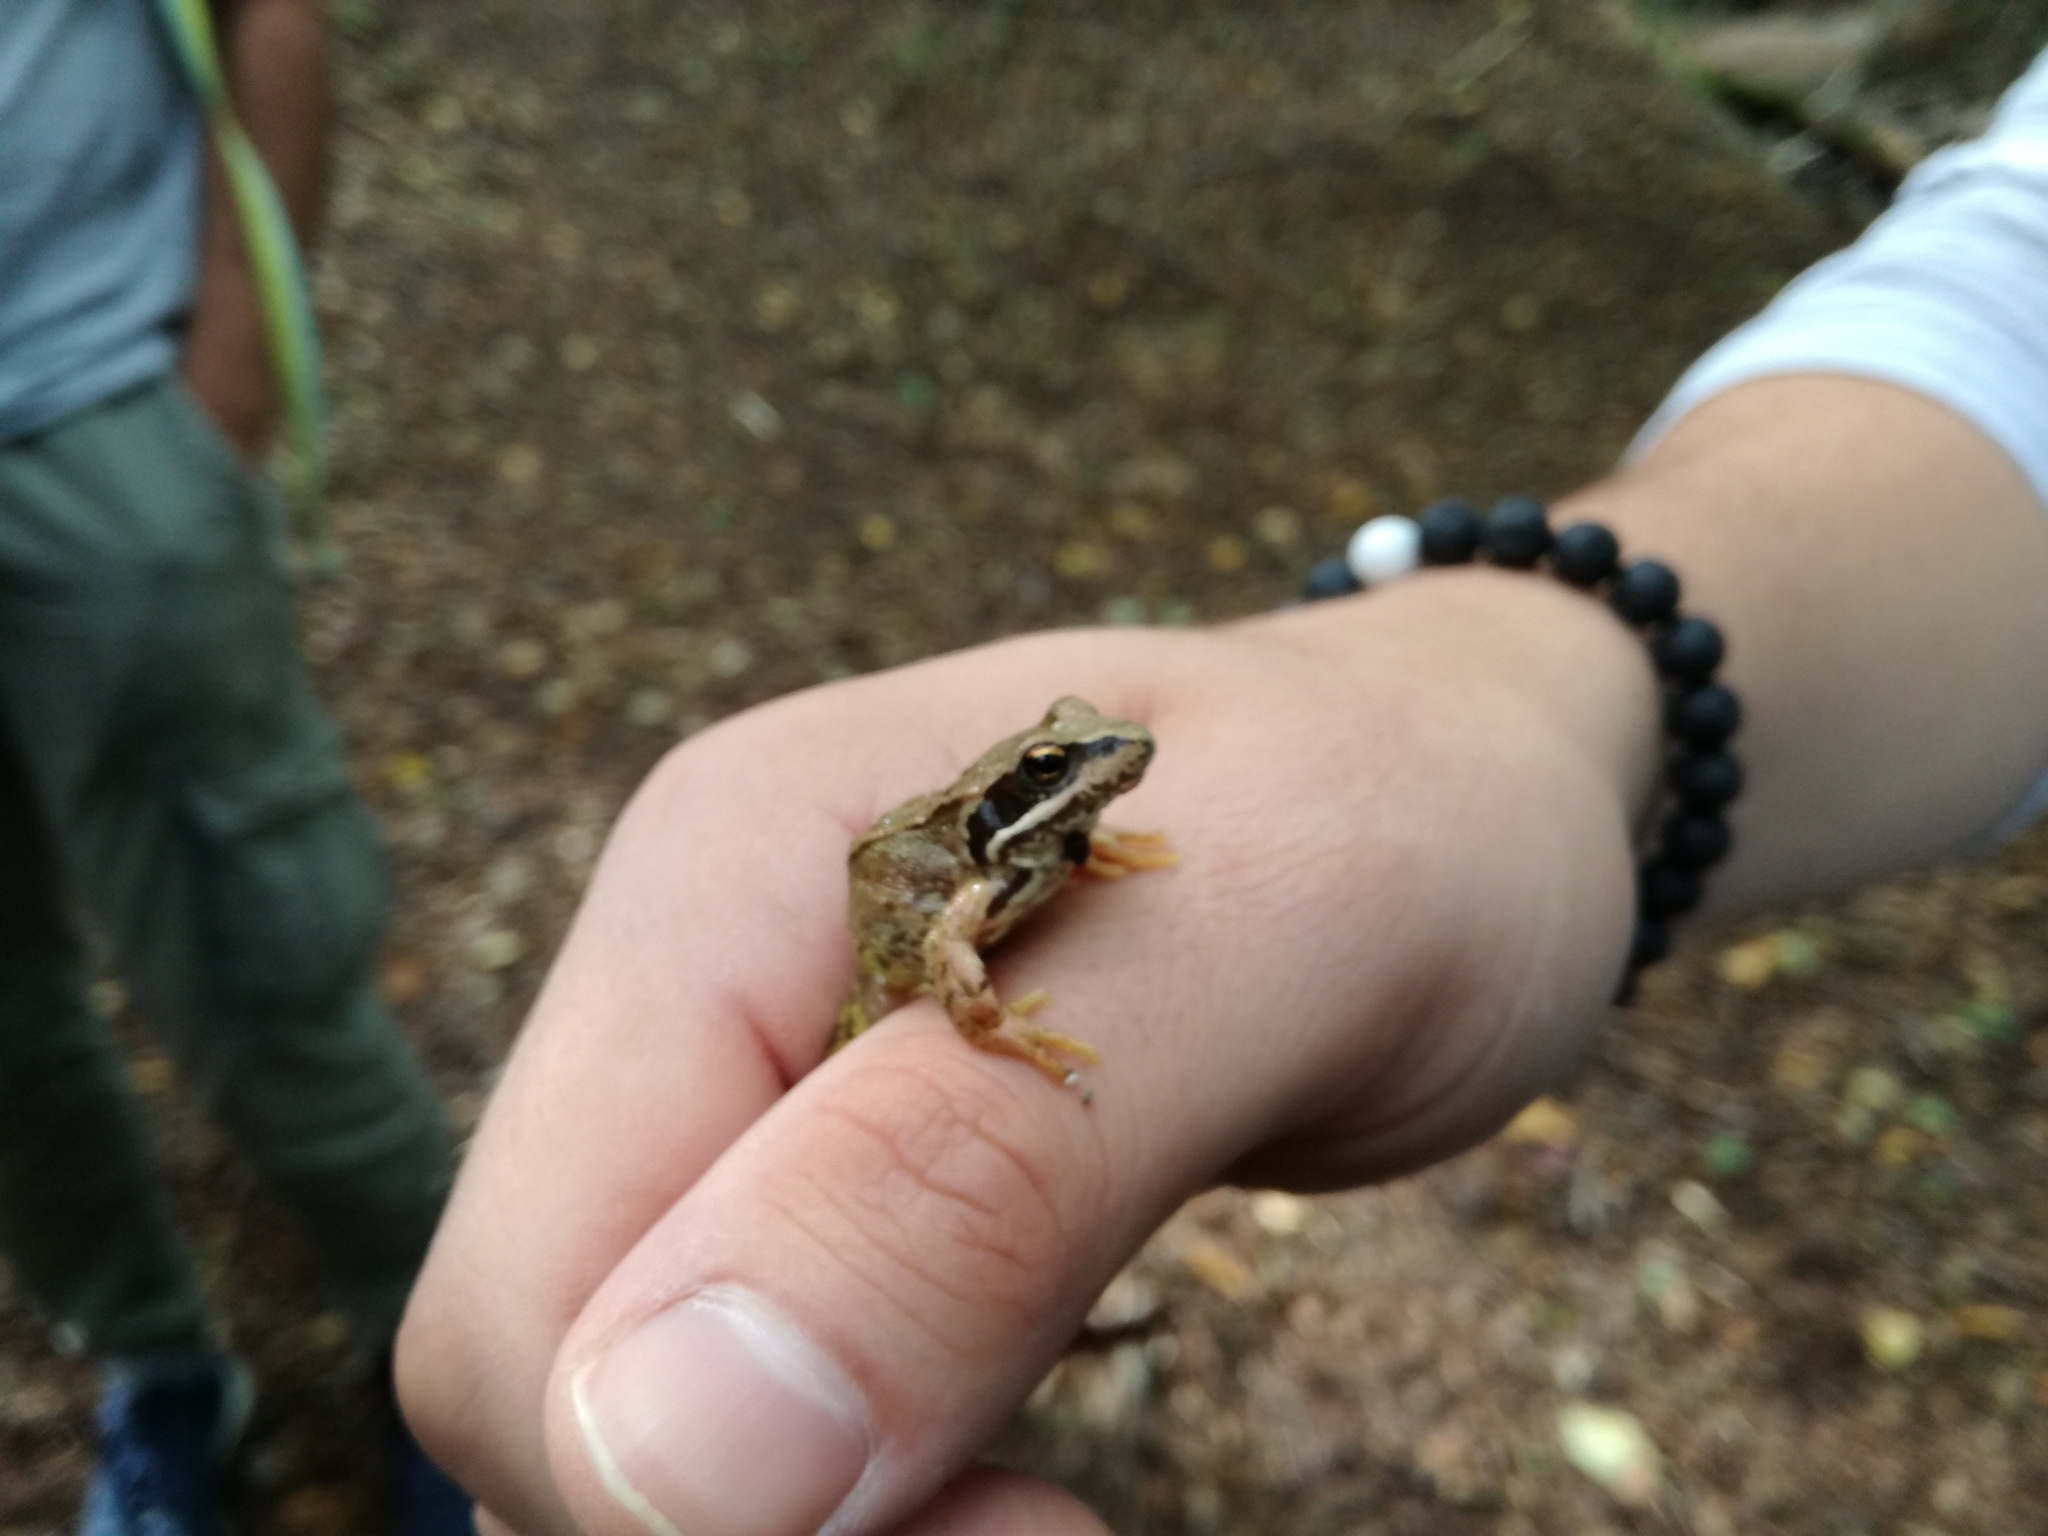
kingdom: Animalia
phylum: Chordata
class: Amphibia
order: Anura
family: Ranidae
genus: Rana
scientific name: Rana temporaria
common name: Common frog
